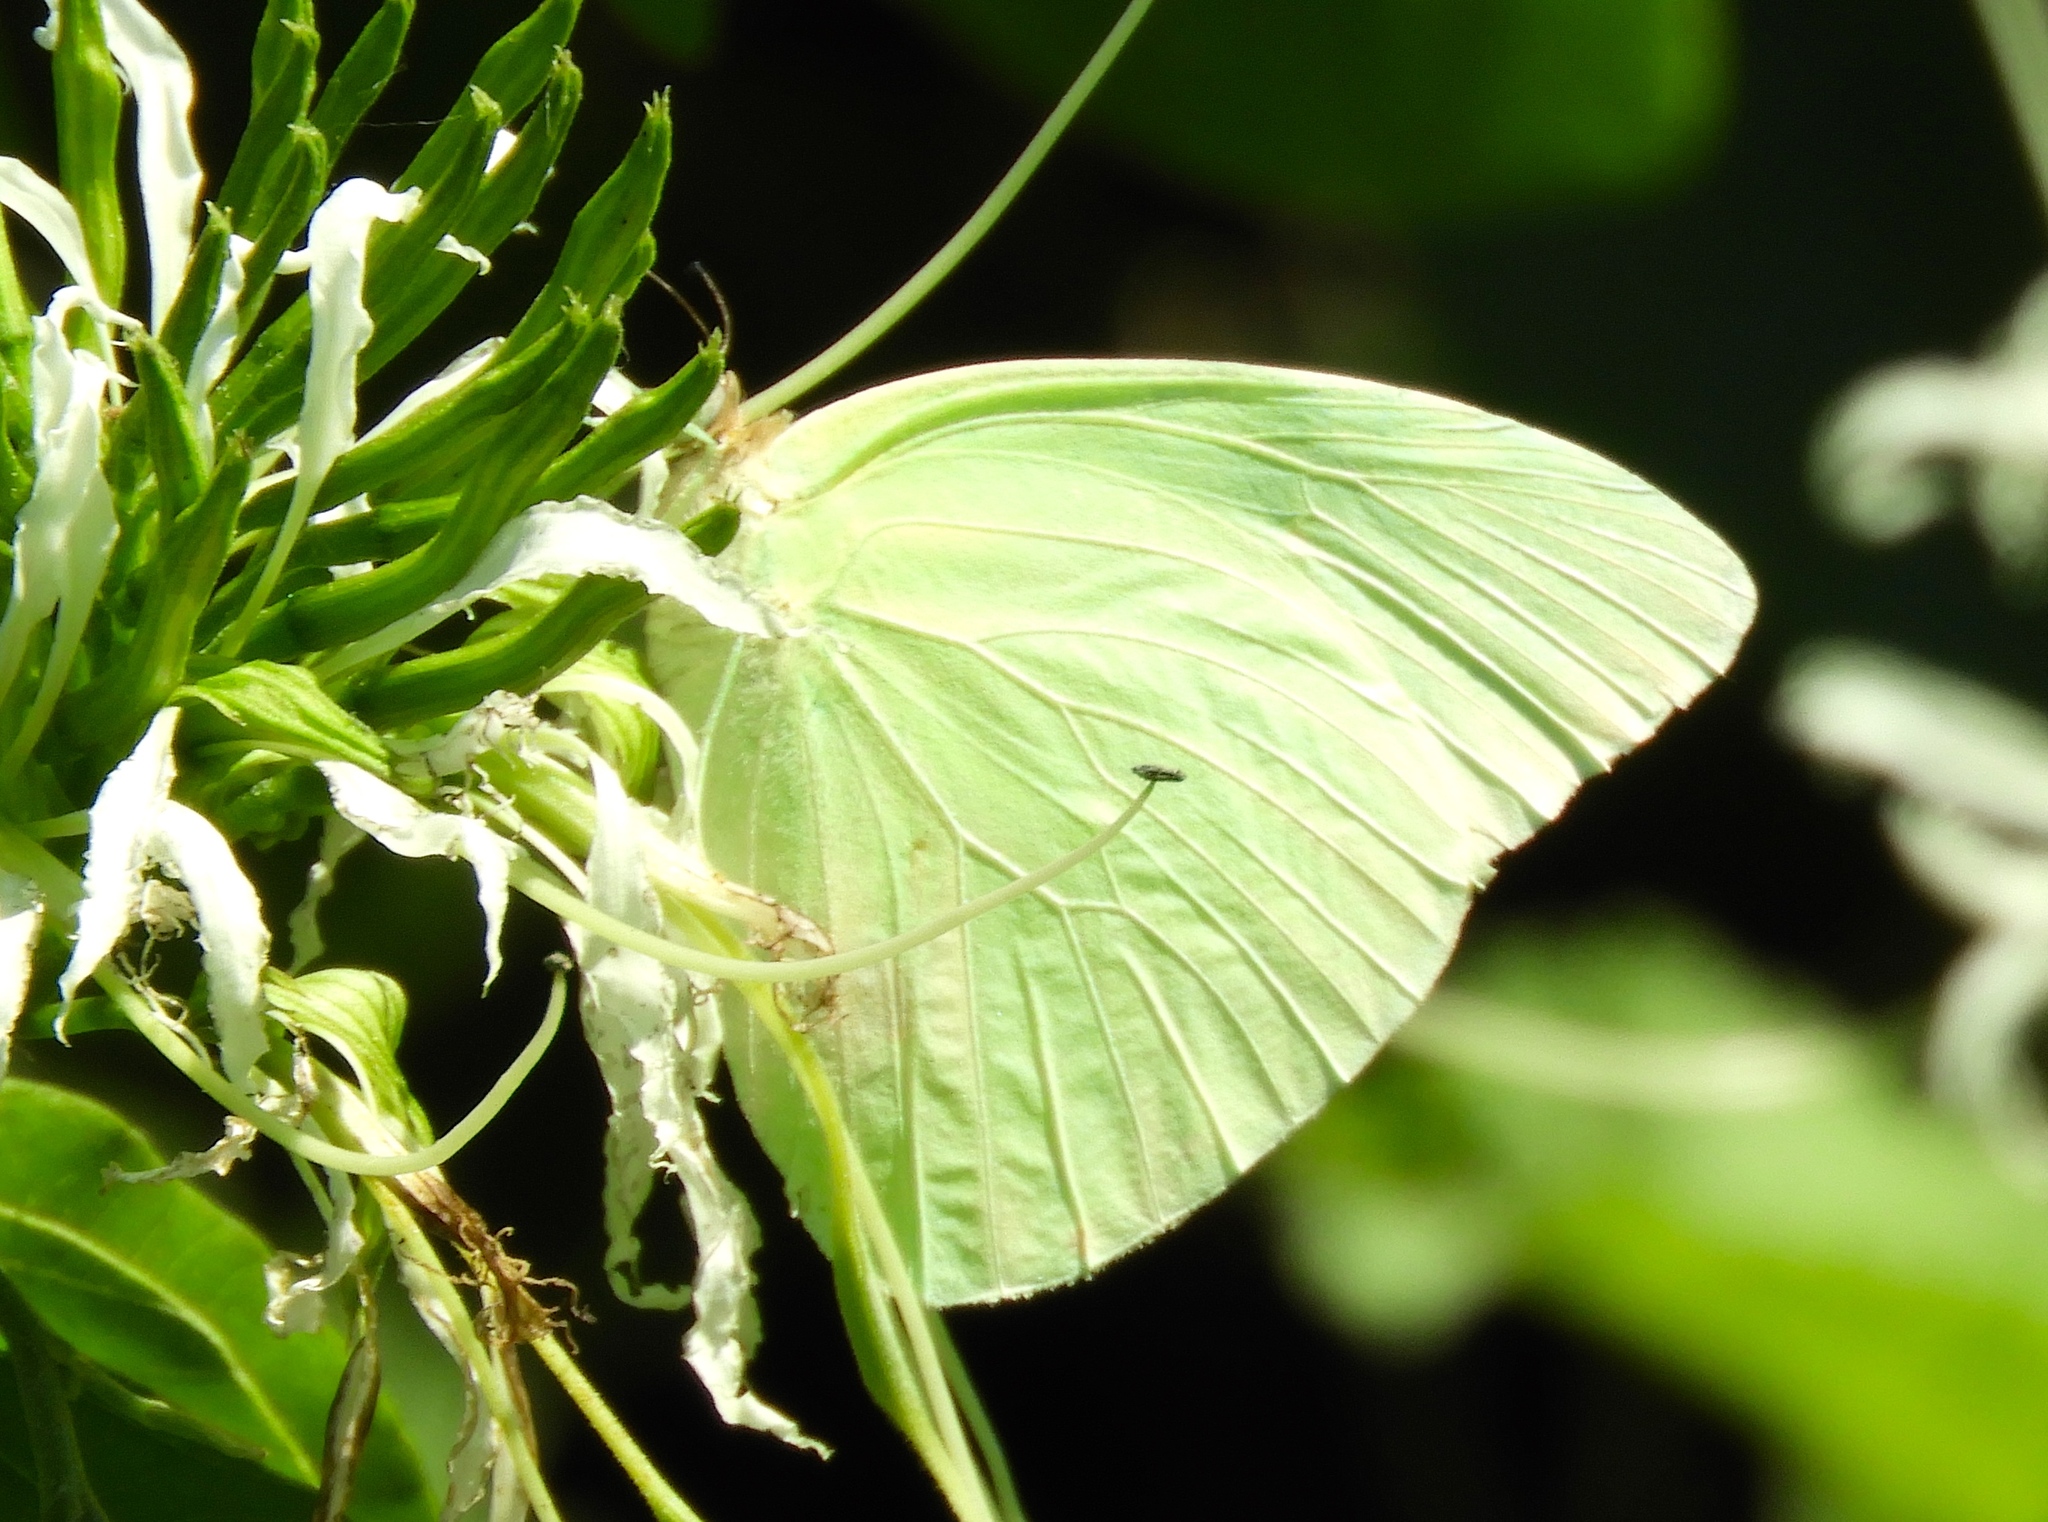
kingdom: Animalia
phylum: Arthropoda
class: Insecta
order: Lepidoptera
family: Pieridae
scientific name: Pieridae
